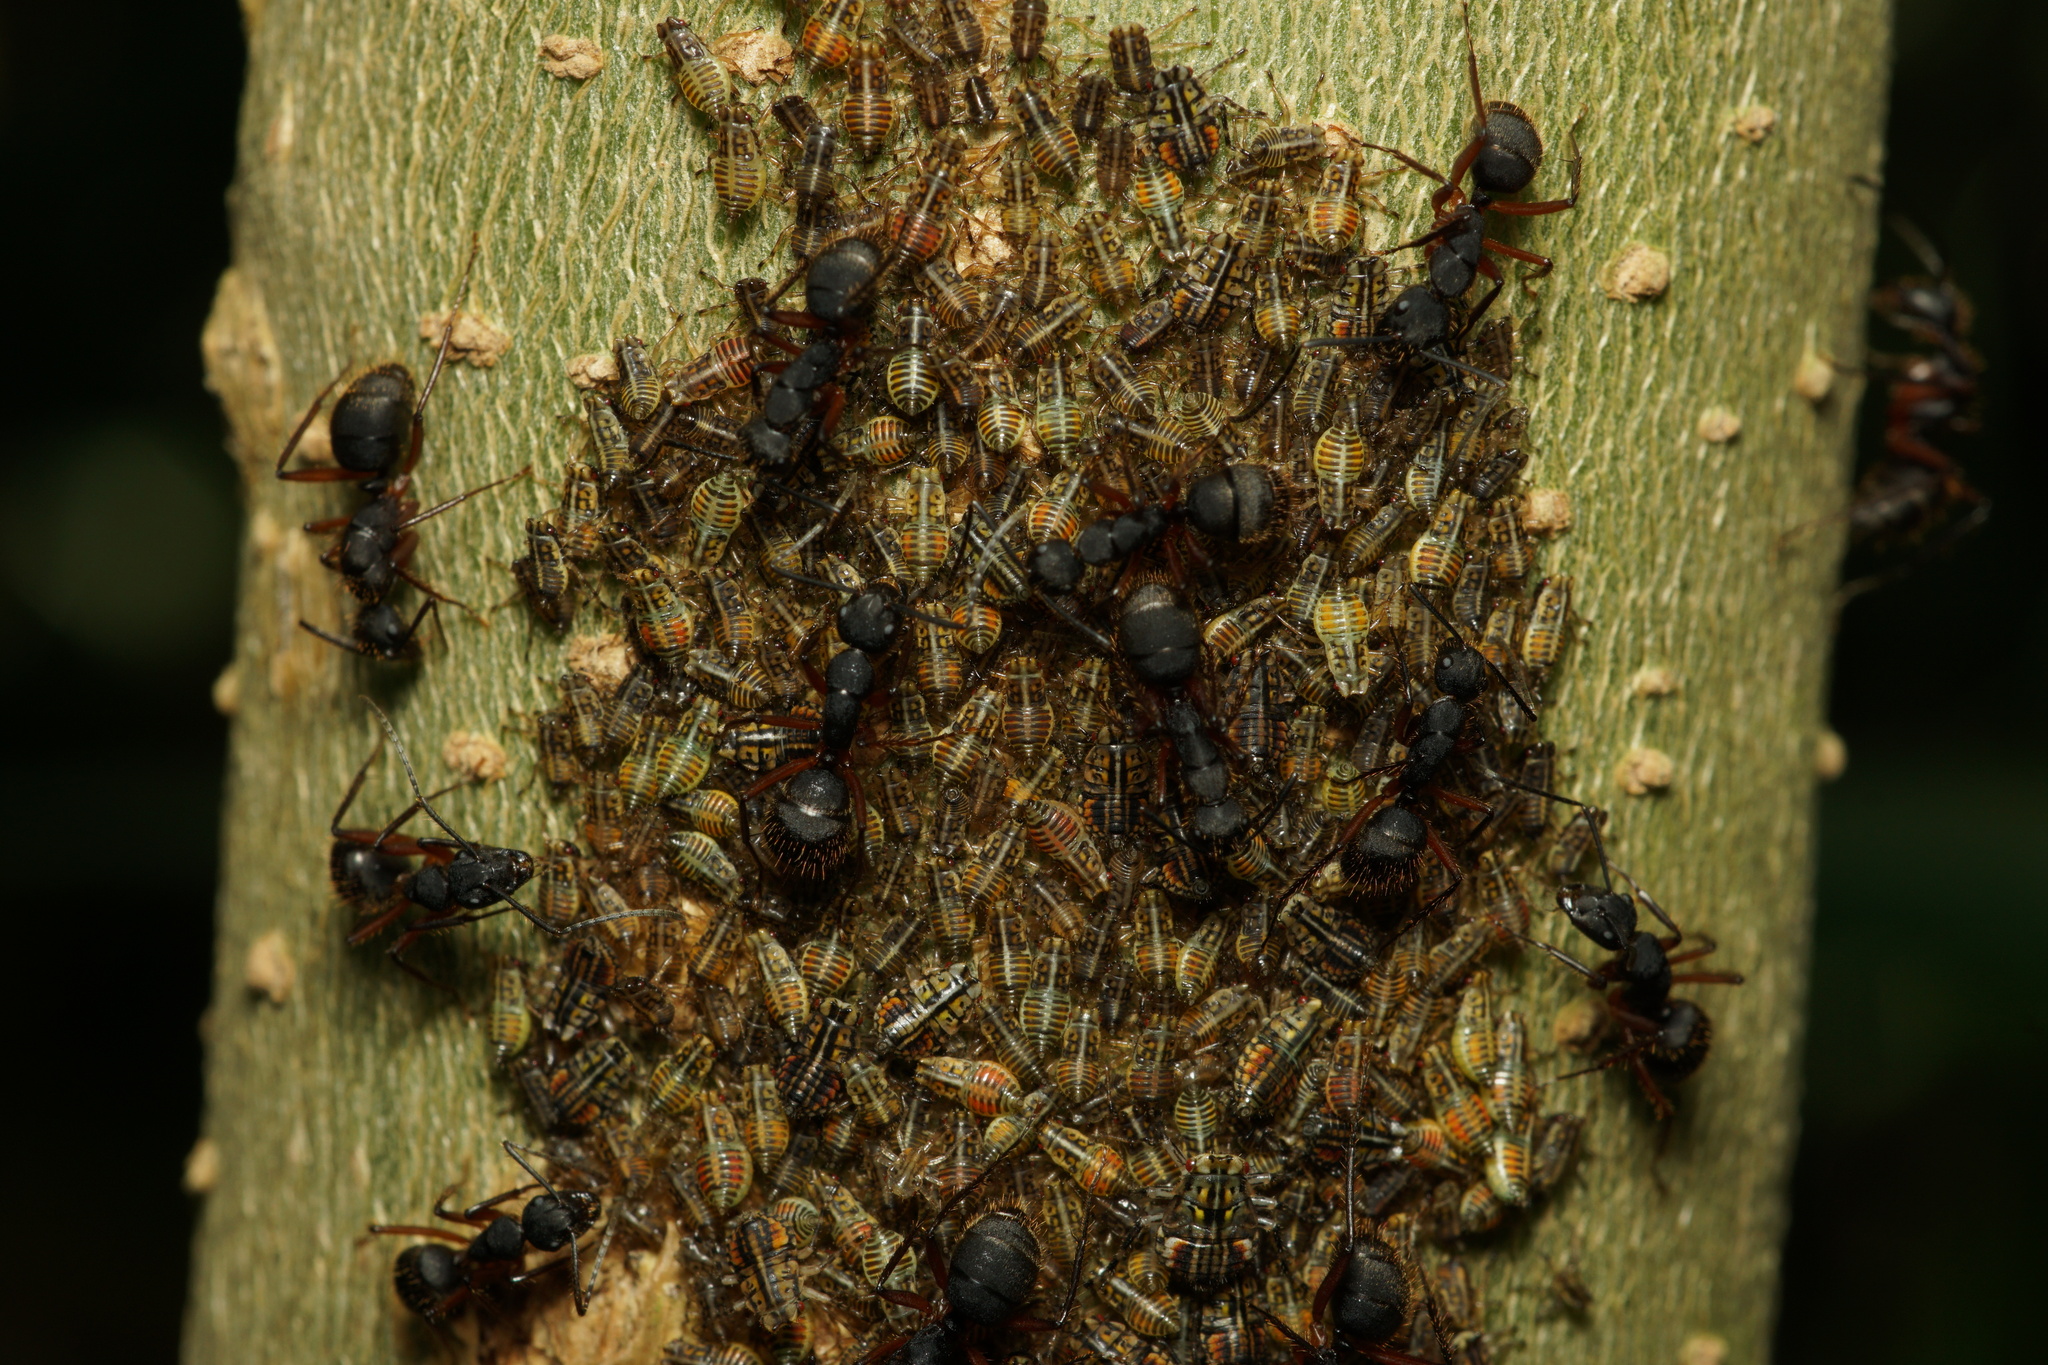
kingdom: Animalia
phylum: Arthropoda
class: Insecta
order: Hymenoptera
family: Formicidae
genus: Camponotus
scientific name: Camponotus rufipes
